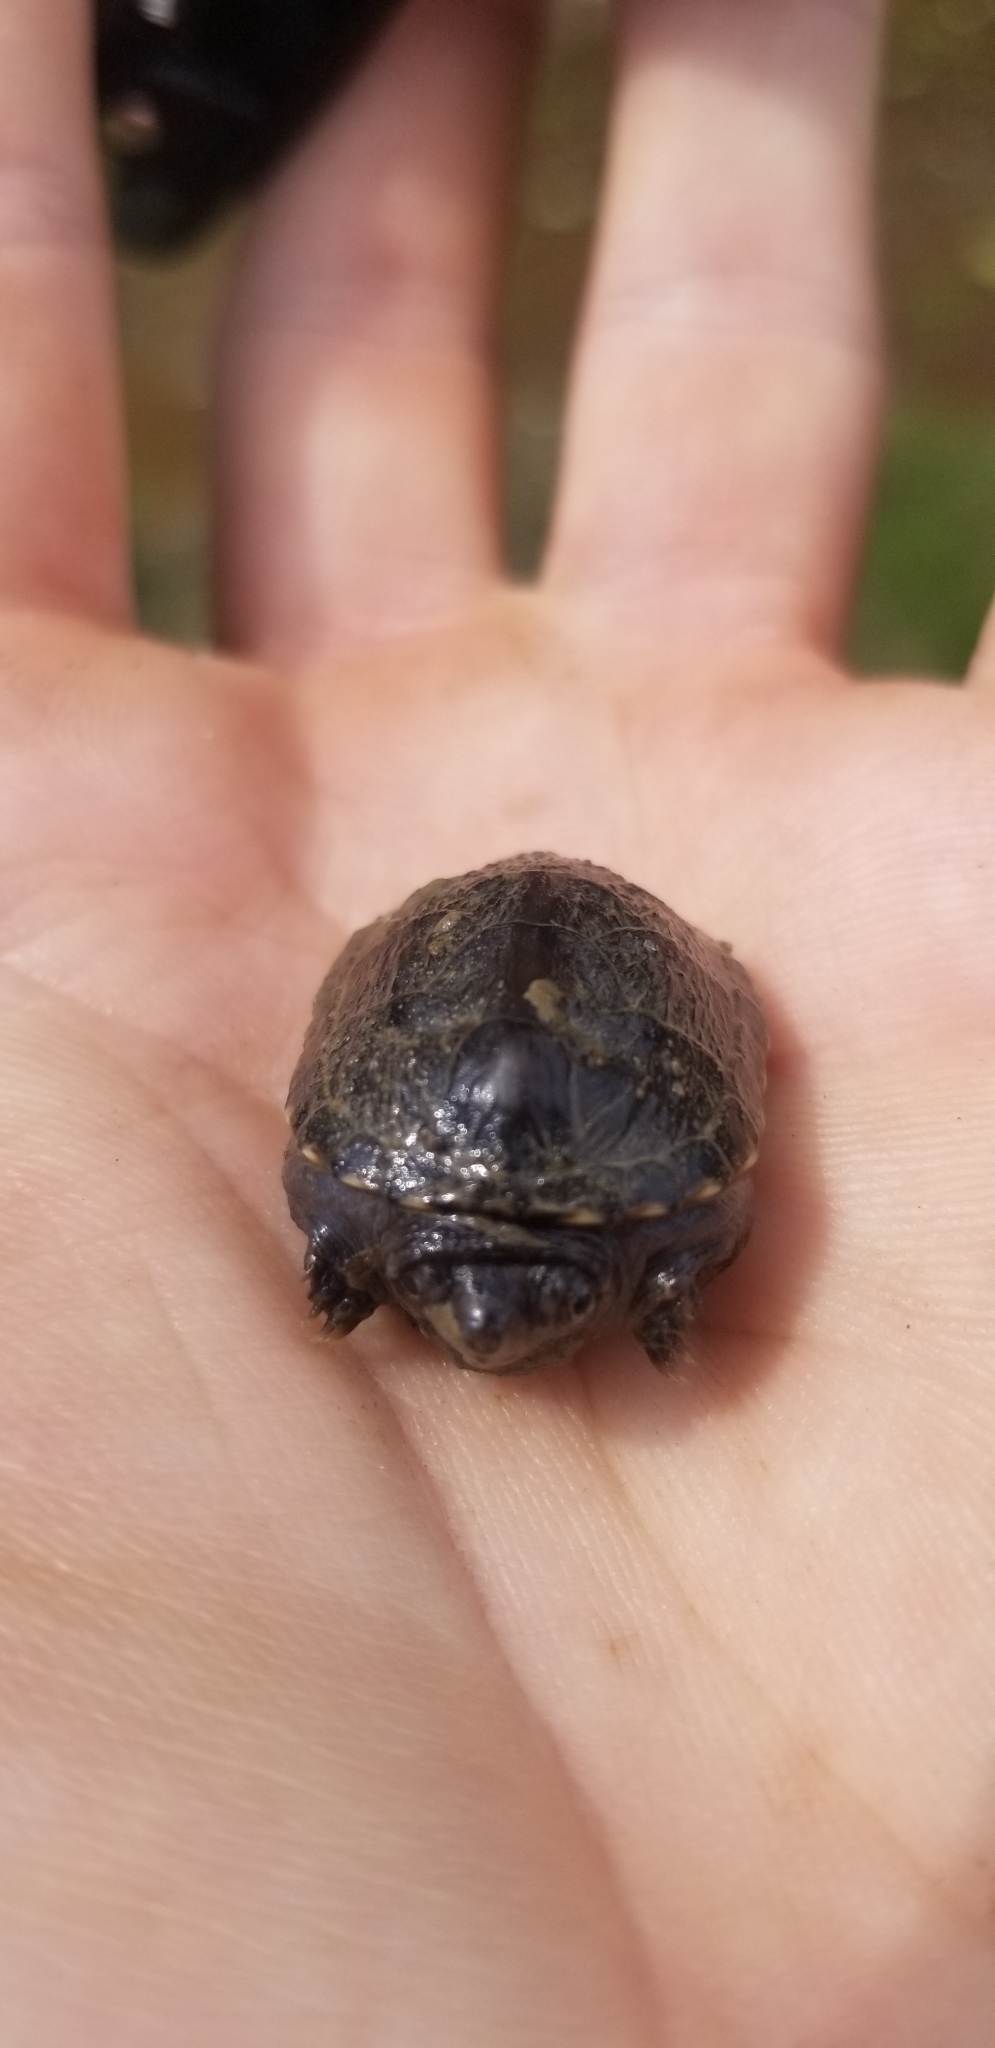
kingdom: Animalia
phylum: Chordata
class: Testudines
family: Kinosternidae
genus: Kinosternon
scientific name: Kinosternon subrubrum
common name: Eastern mud turtle
